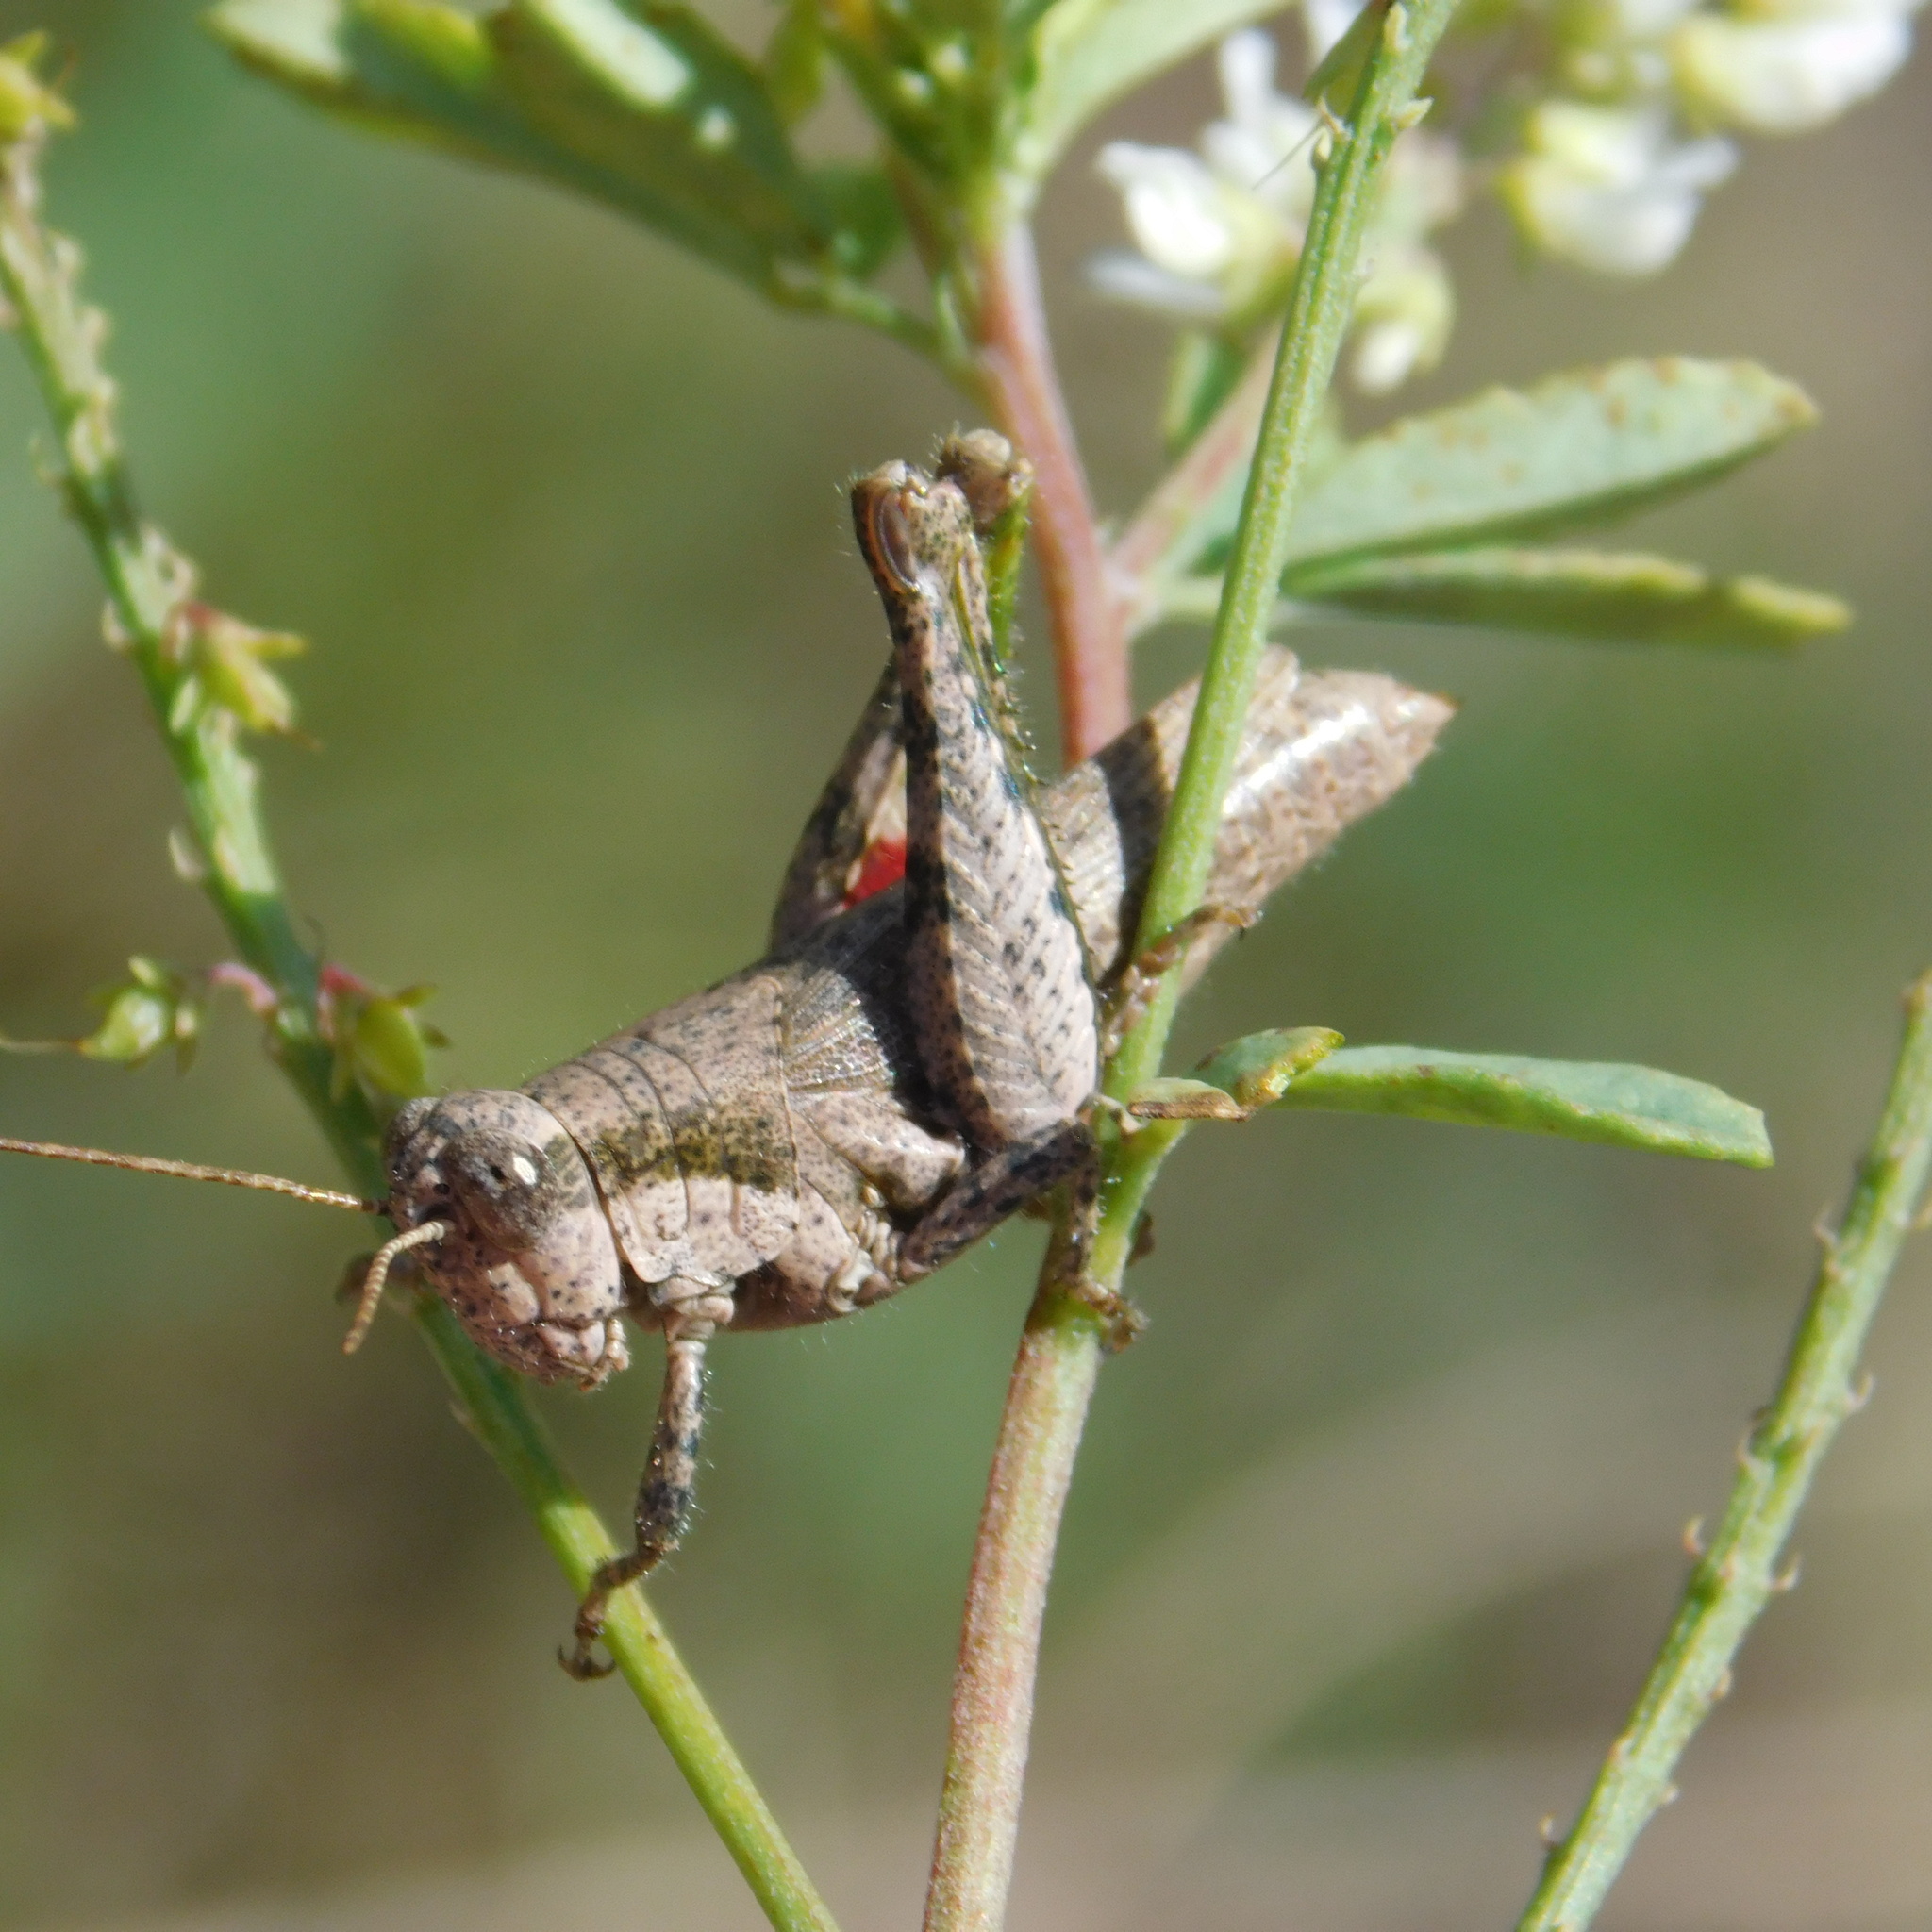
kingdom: Animalia
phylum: Arthropoda
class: Insecta
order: Orthoptera
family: Acrididae
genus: Ronderosia
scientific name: Ronderosia bergii
